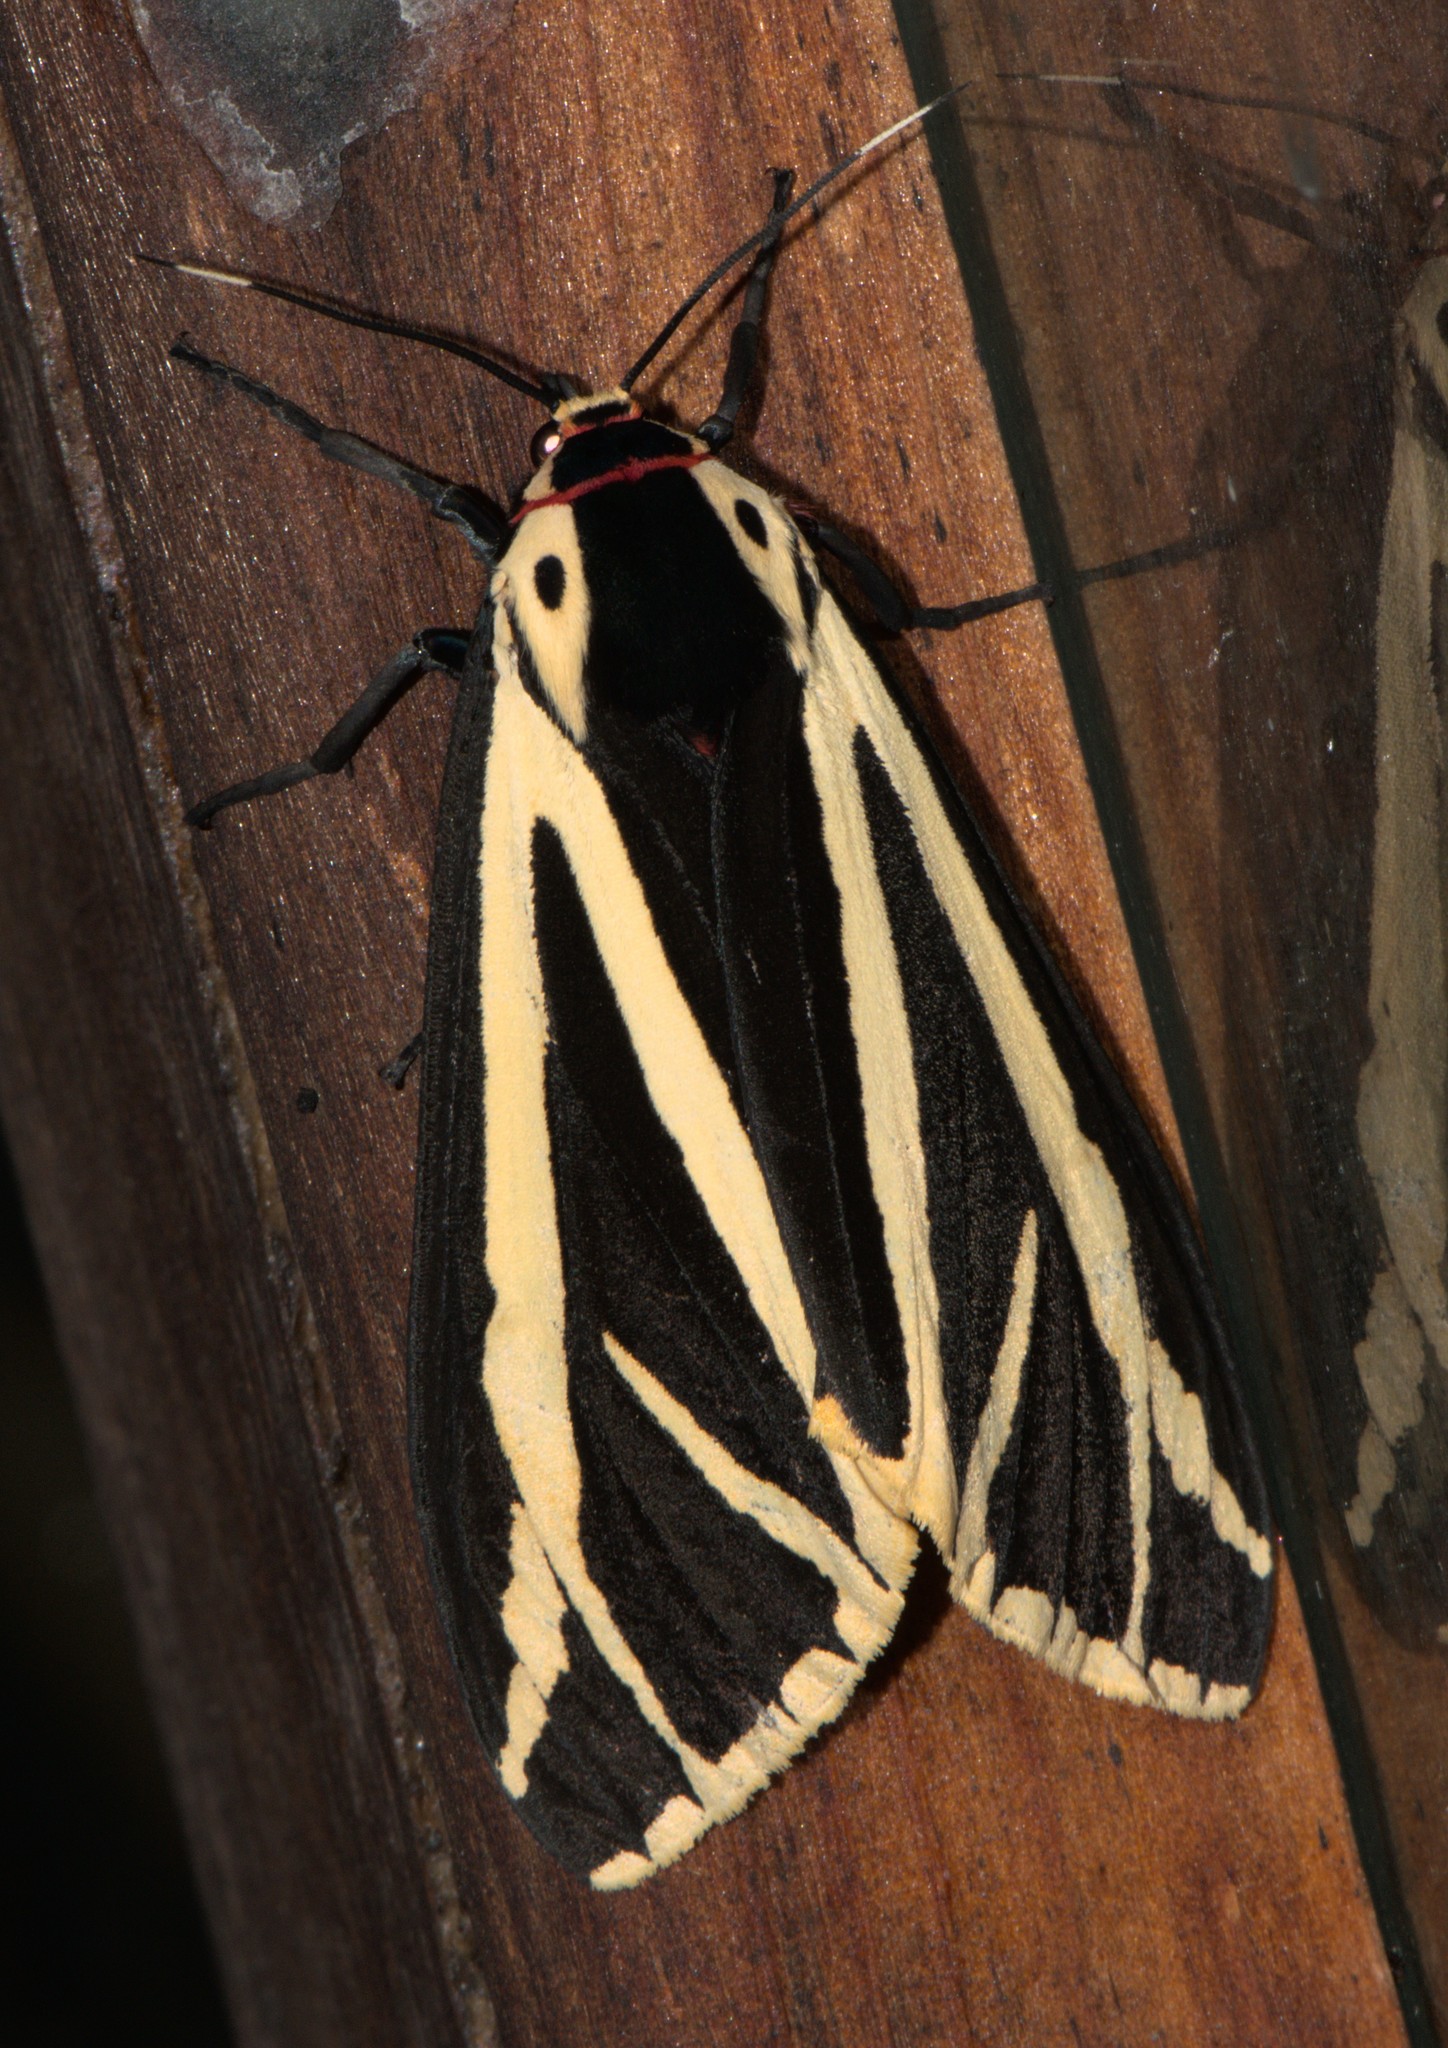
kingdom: Animalia
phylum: Arthropoda
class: Insecta
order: Lepidoptera
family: Erebidae
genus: Areas
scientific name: Areas imperialis
